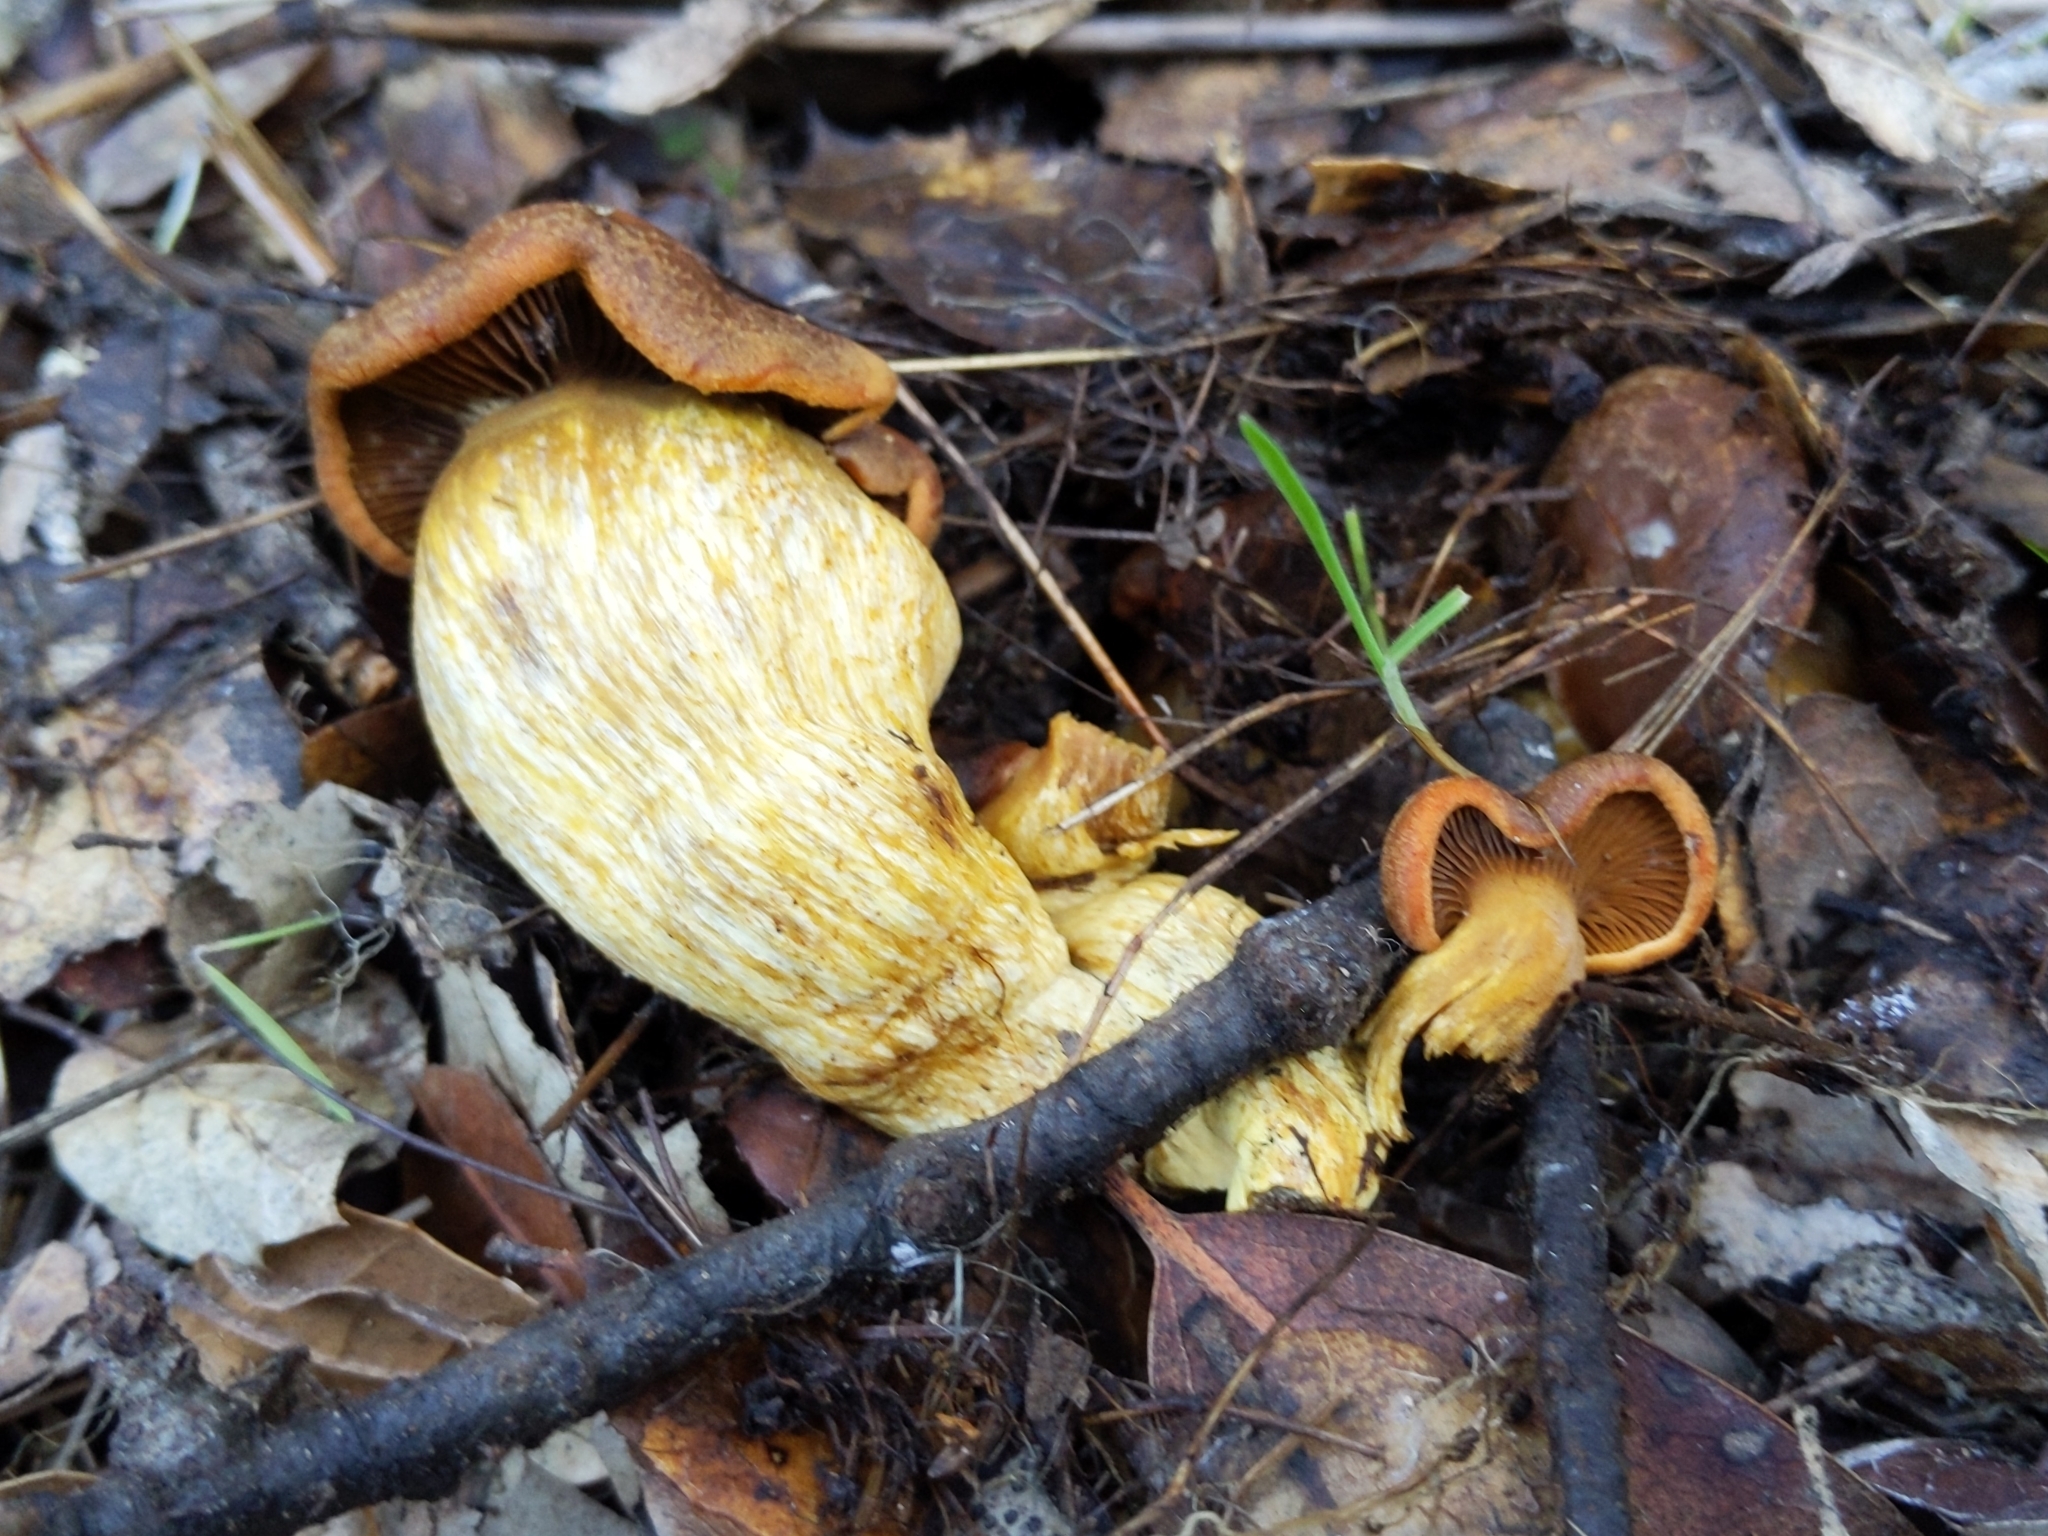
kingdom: Fungi
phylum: Basidiomycota
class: Agaricomycetes
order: Agaricales
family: Omphalotaceae
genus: Omphalotus
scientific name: Omphalotus olivascens
